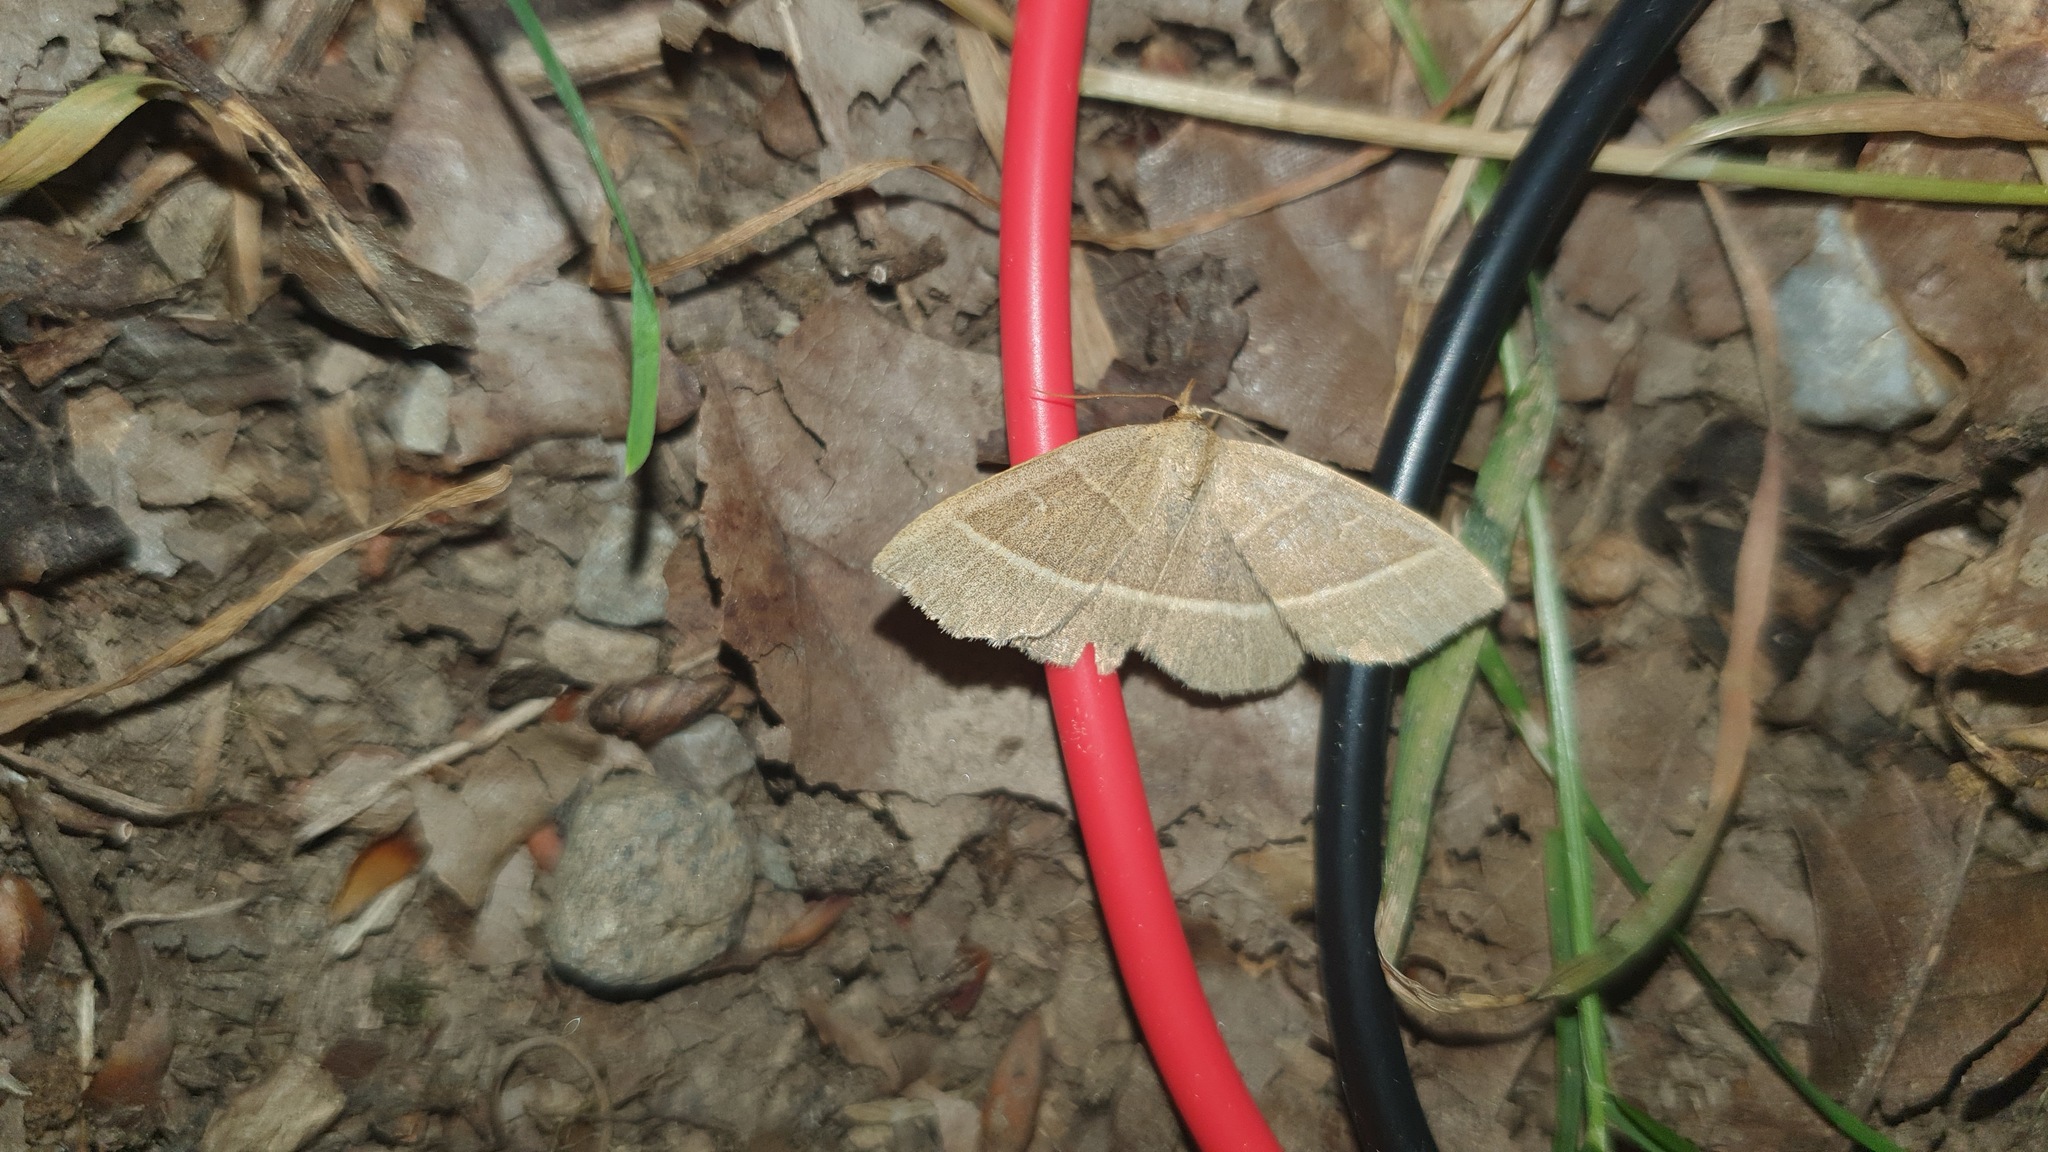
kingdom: Animalia
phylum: Arthropoda
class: Insecta
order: Lepidoptera
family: Erebidae
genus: Trisateles
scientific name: Trisateles emortualis
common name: Olive crescent
